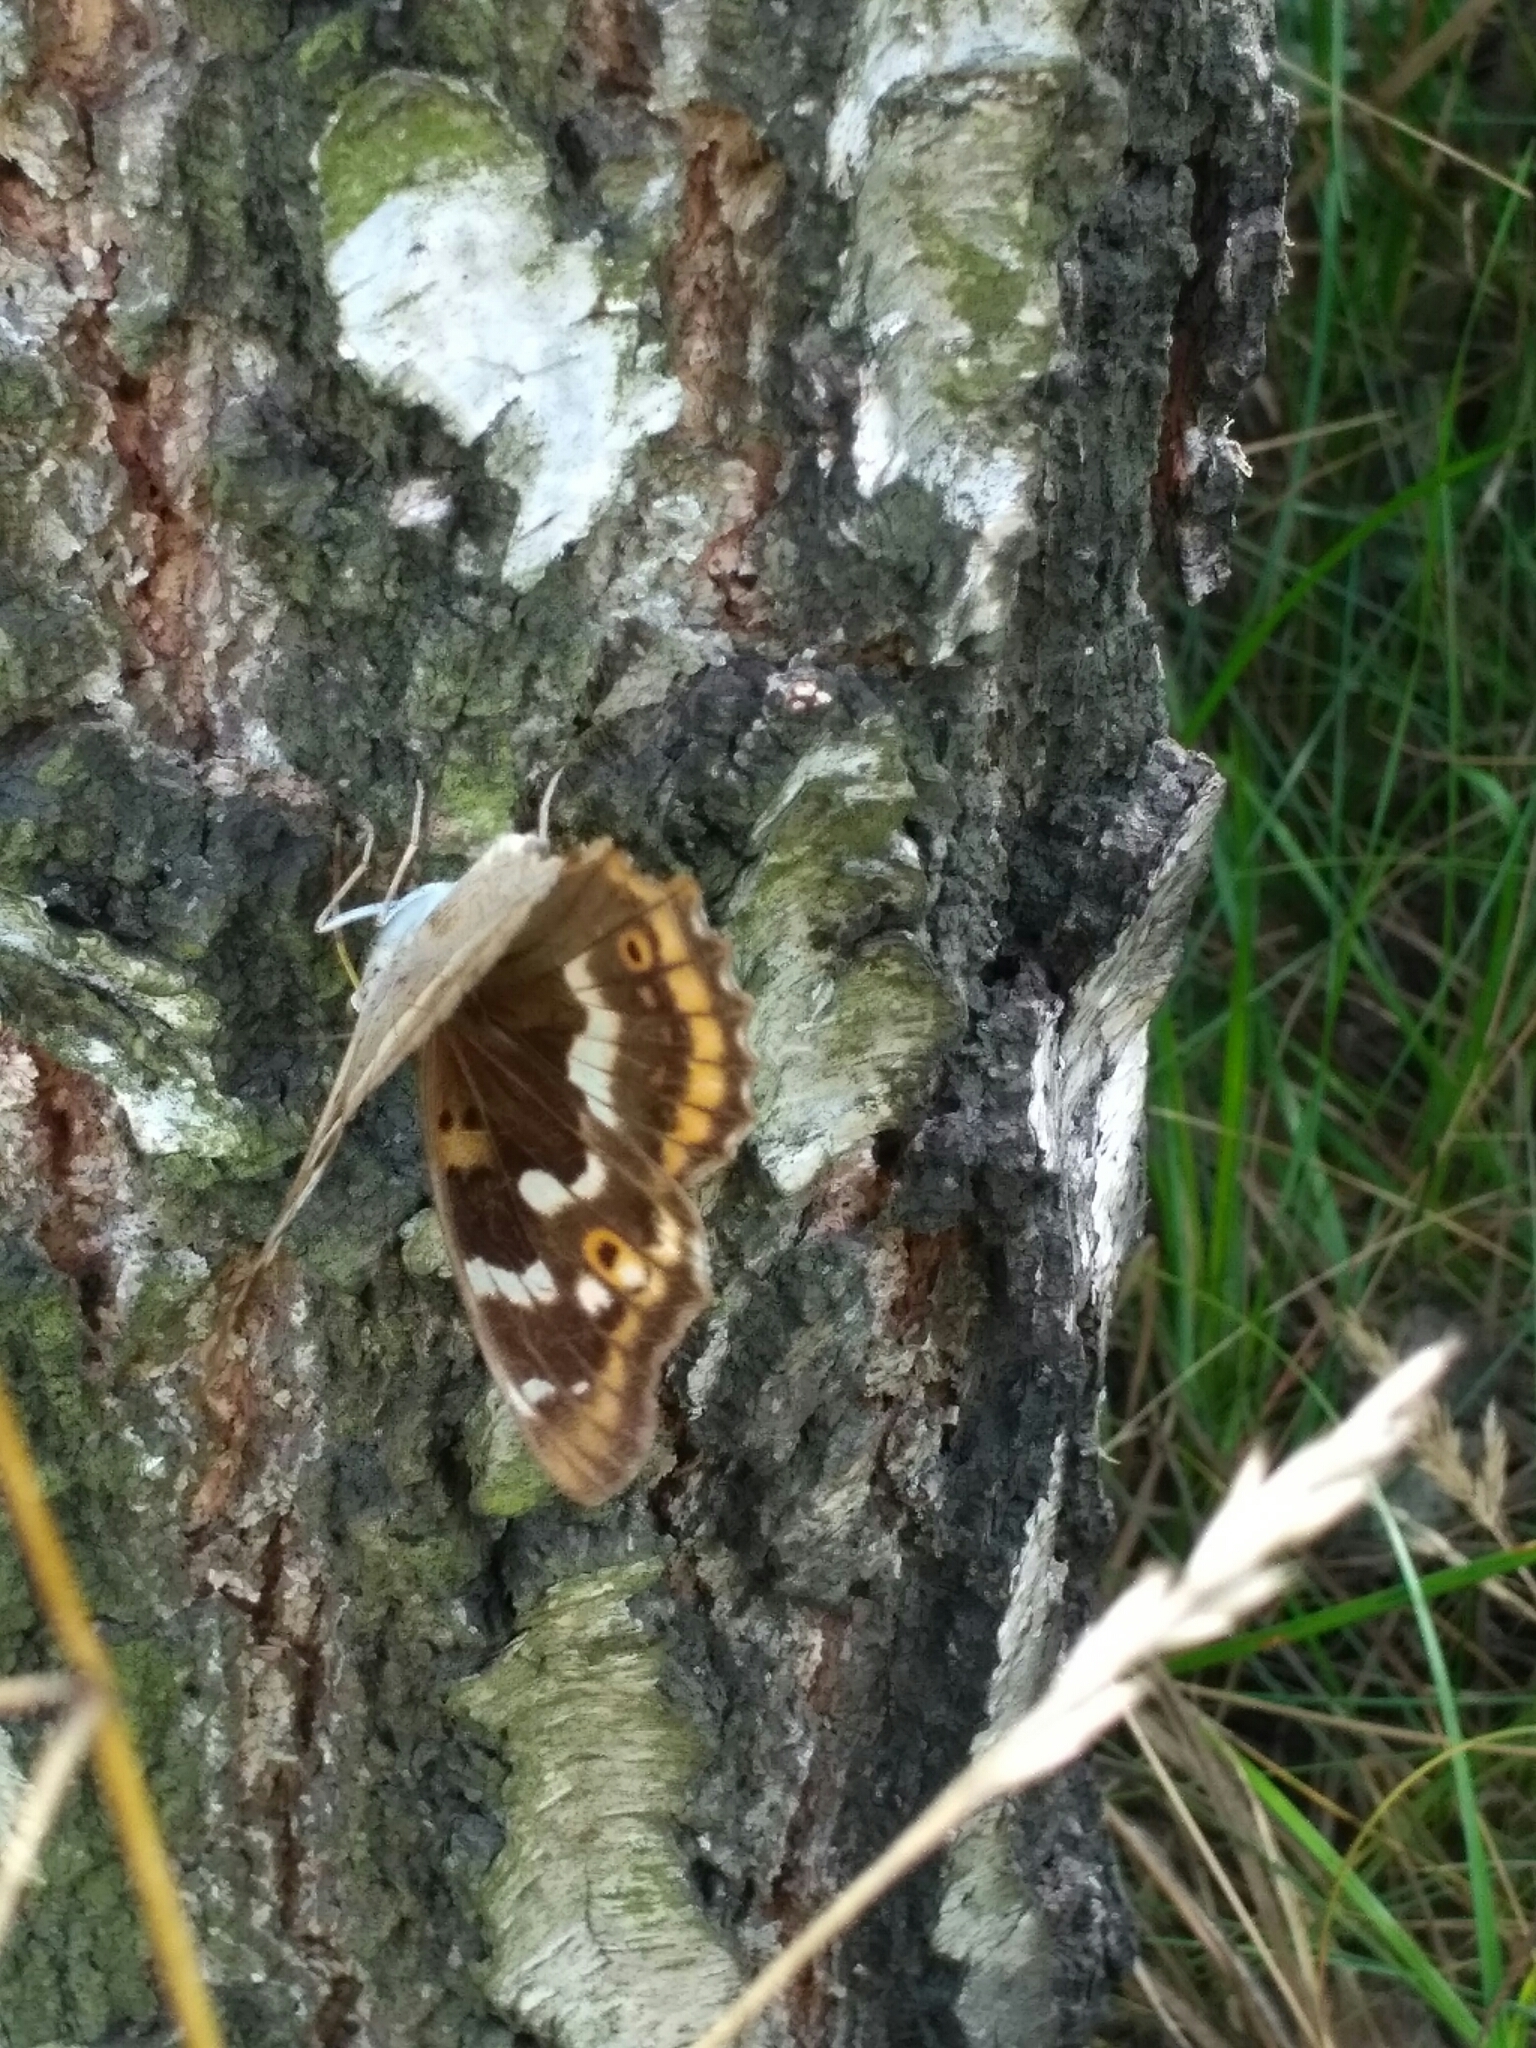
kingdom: Animalia
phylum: Arthropoda
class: Insecta
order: Lepidoptera
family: Nymphalidae
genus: Apatura
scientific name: Apatura ilia
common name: Lesser purple emperor
